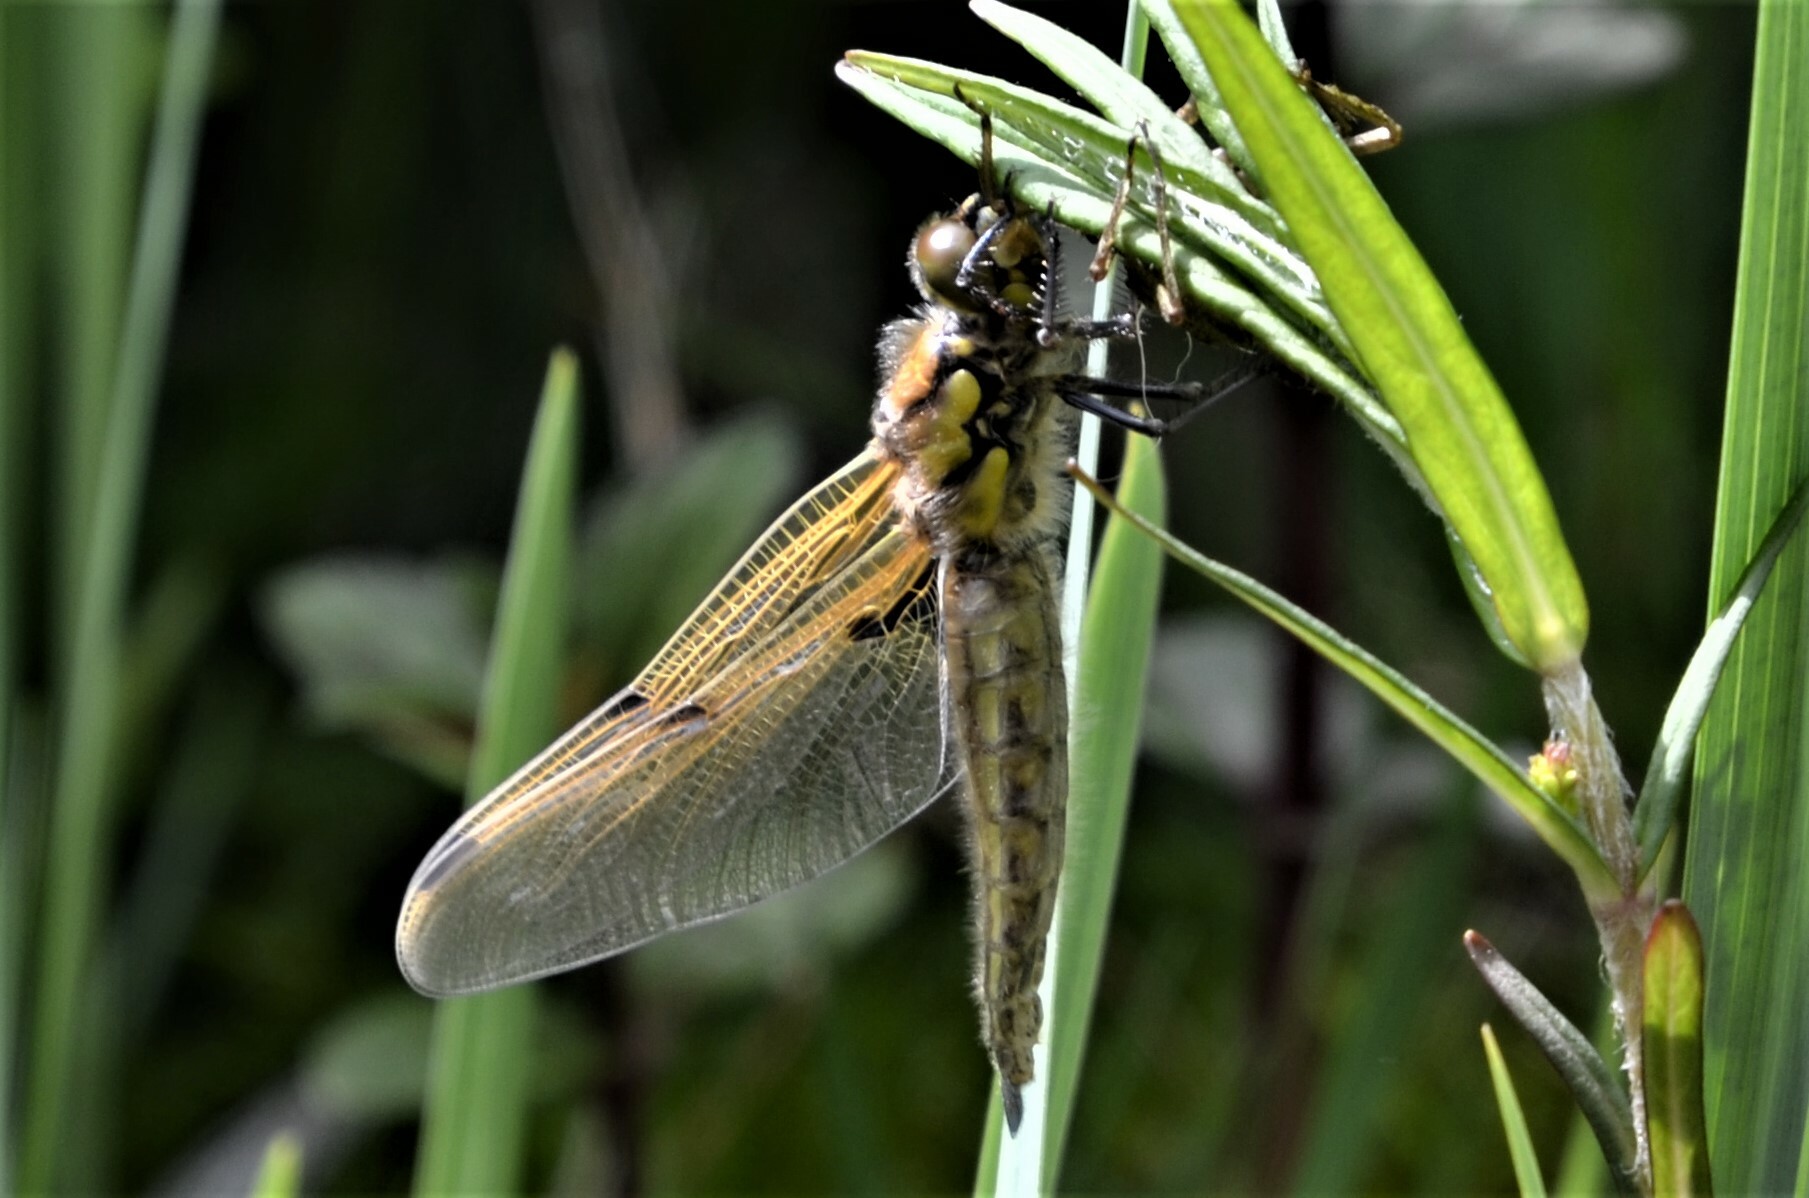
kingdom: Animalia
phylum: Arthropoda
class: Insecta
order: Odonata
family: Libellulidae
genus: Libellula
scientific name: Libellula quadrimaculata
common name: Four-spotted chaser
